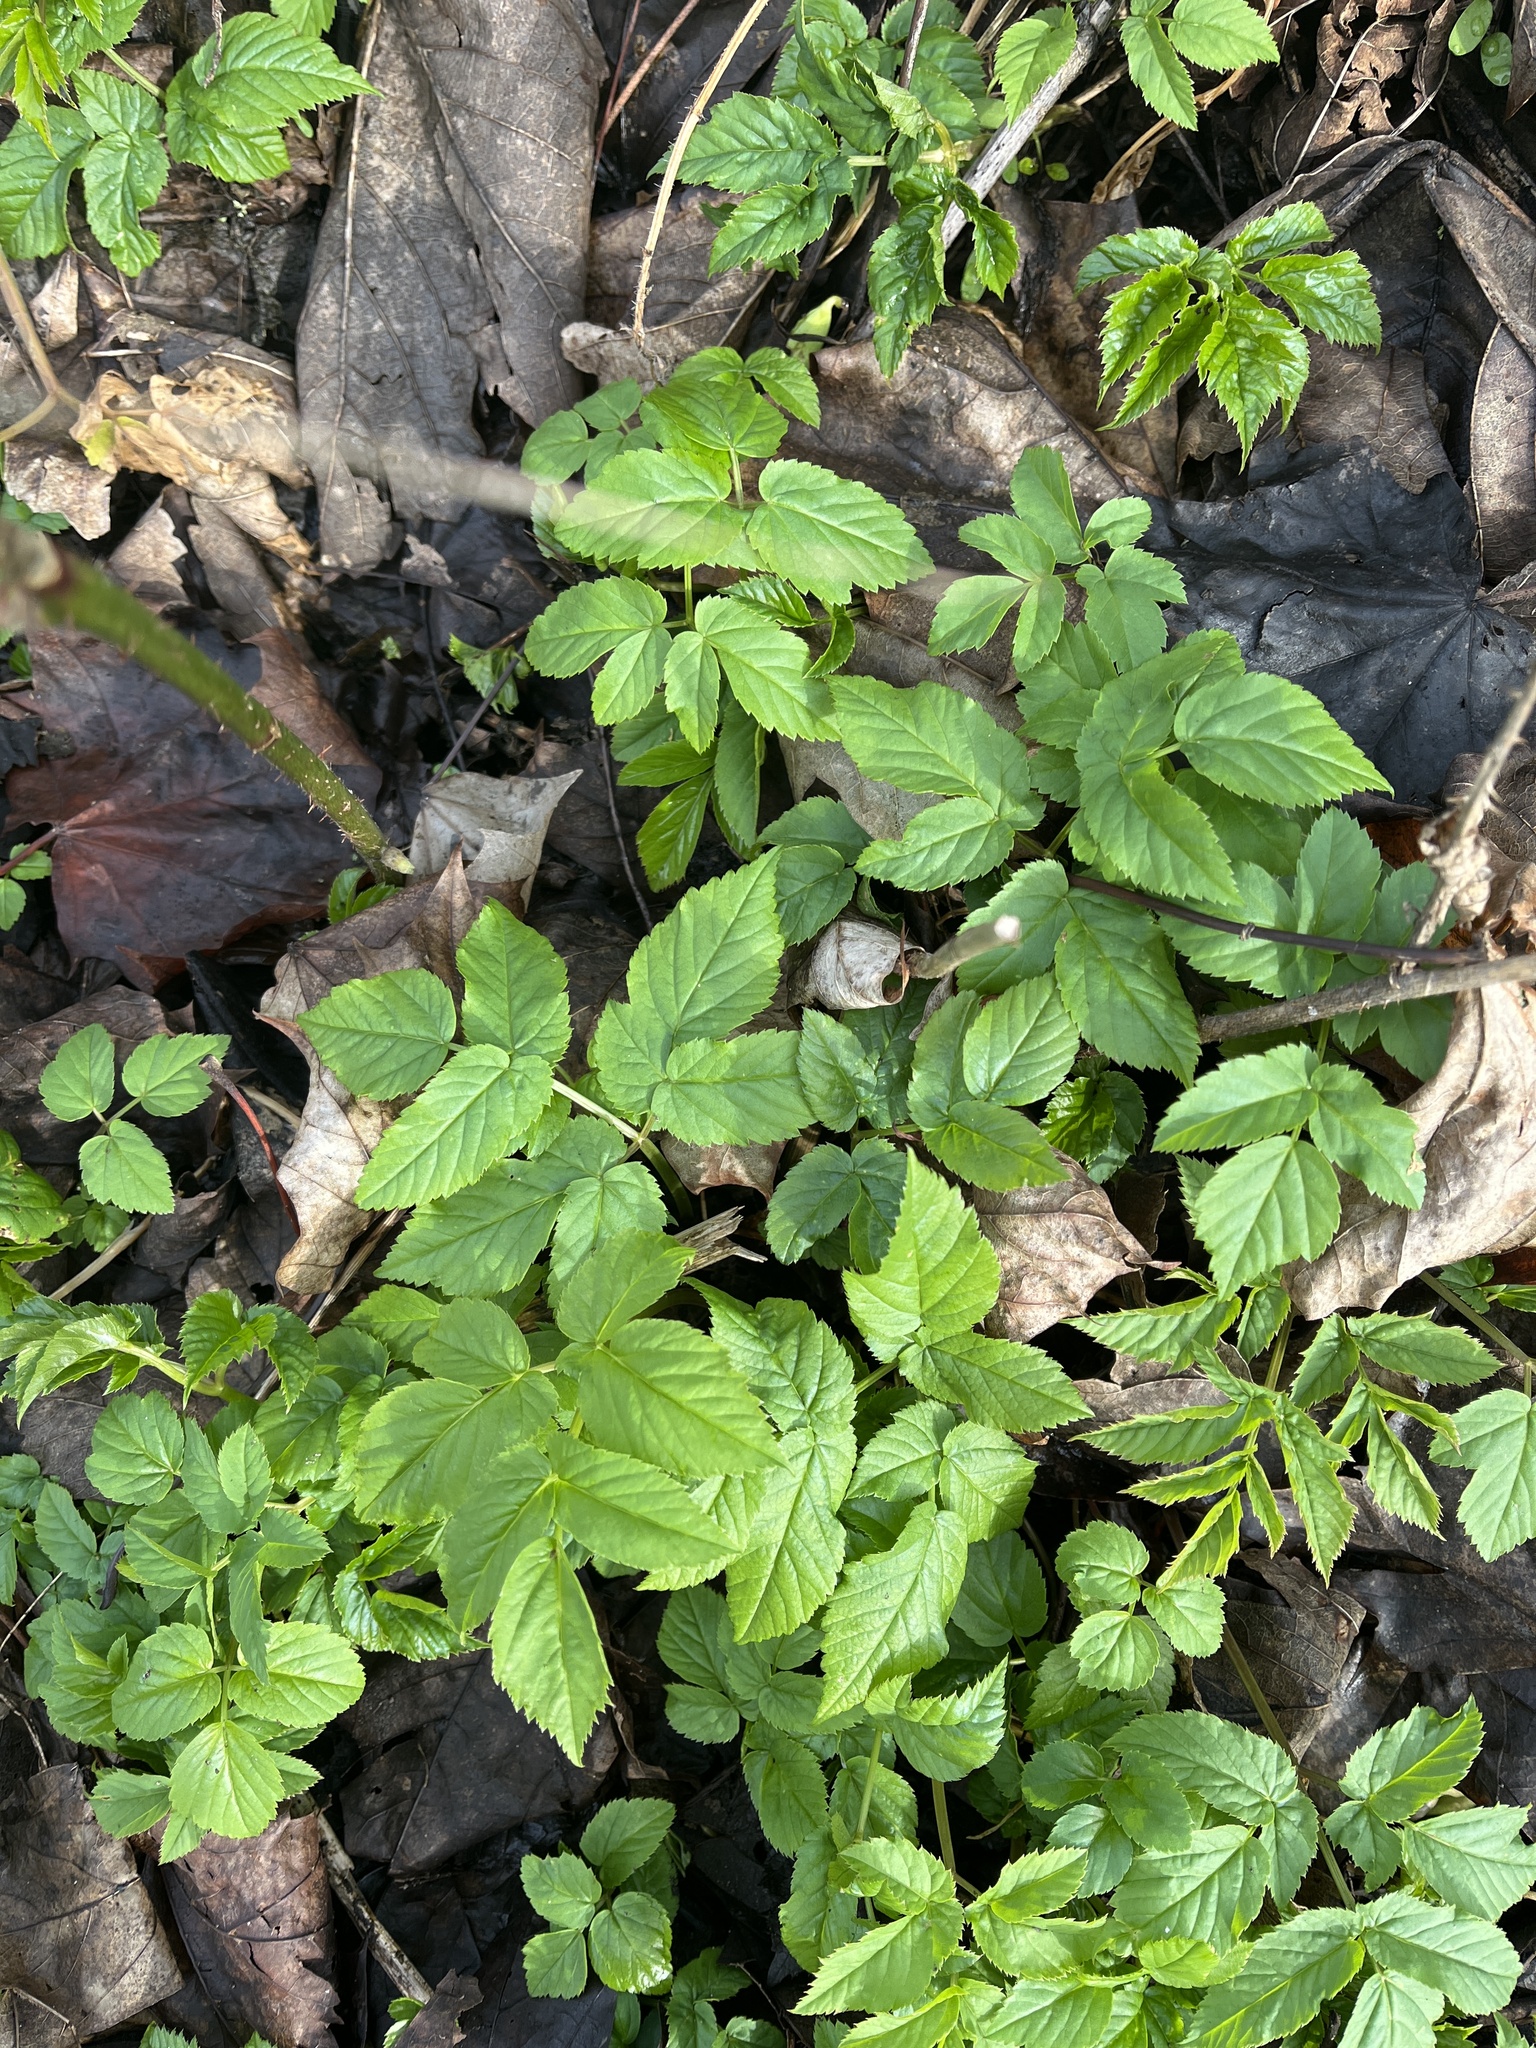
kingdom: Plantae
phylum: Tracheophyta
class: Magnoliopsida
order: Apiales
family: Apiaceae
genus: Aegopodium
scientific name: Aegopodium podagraria
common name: Ground-elder
